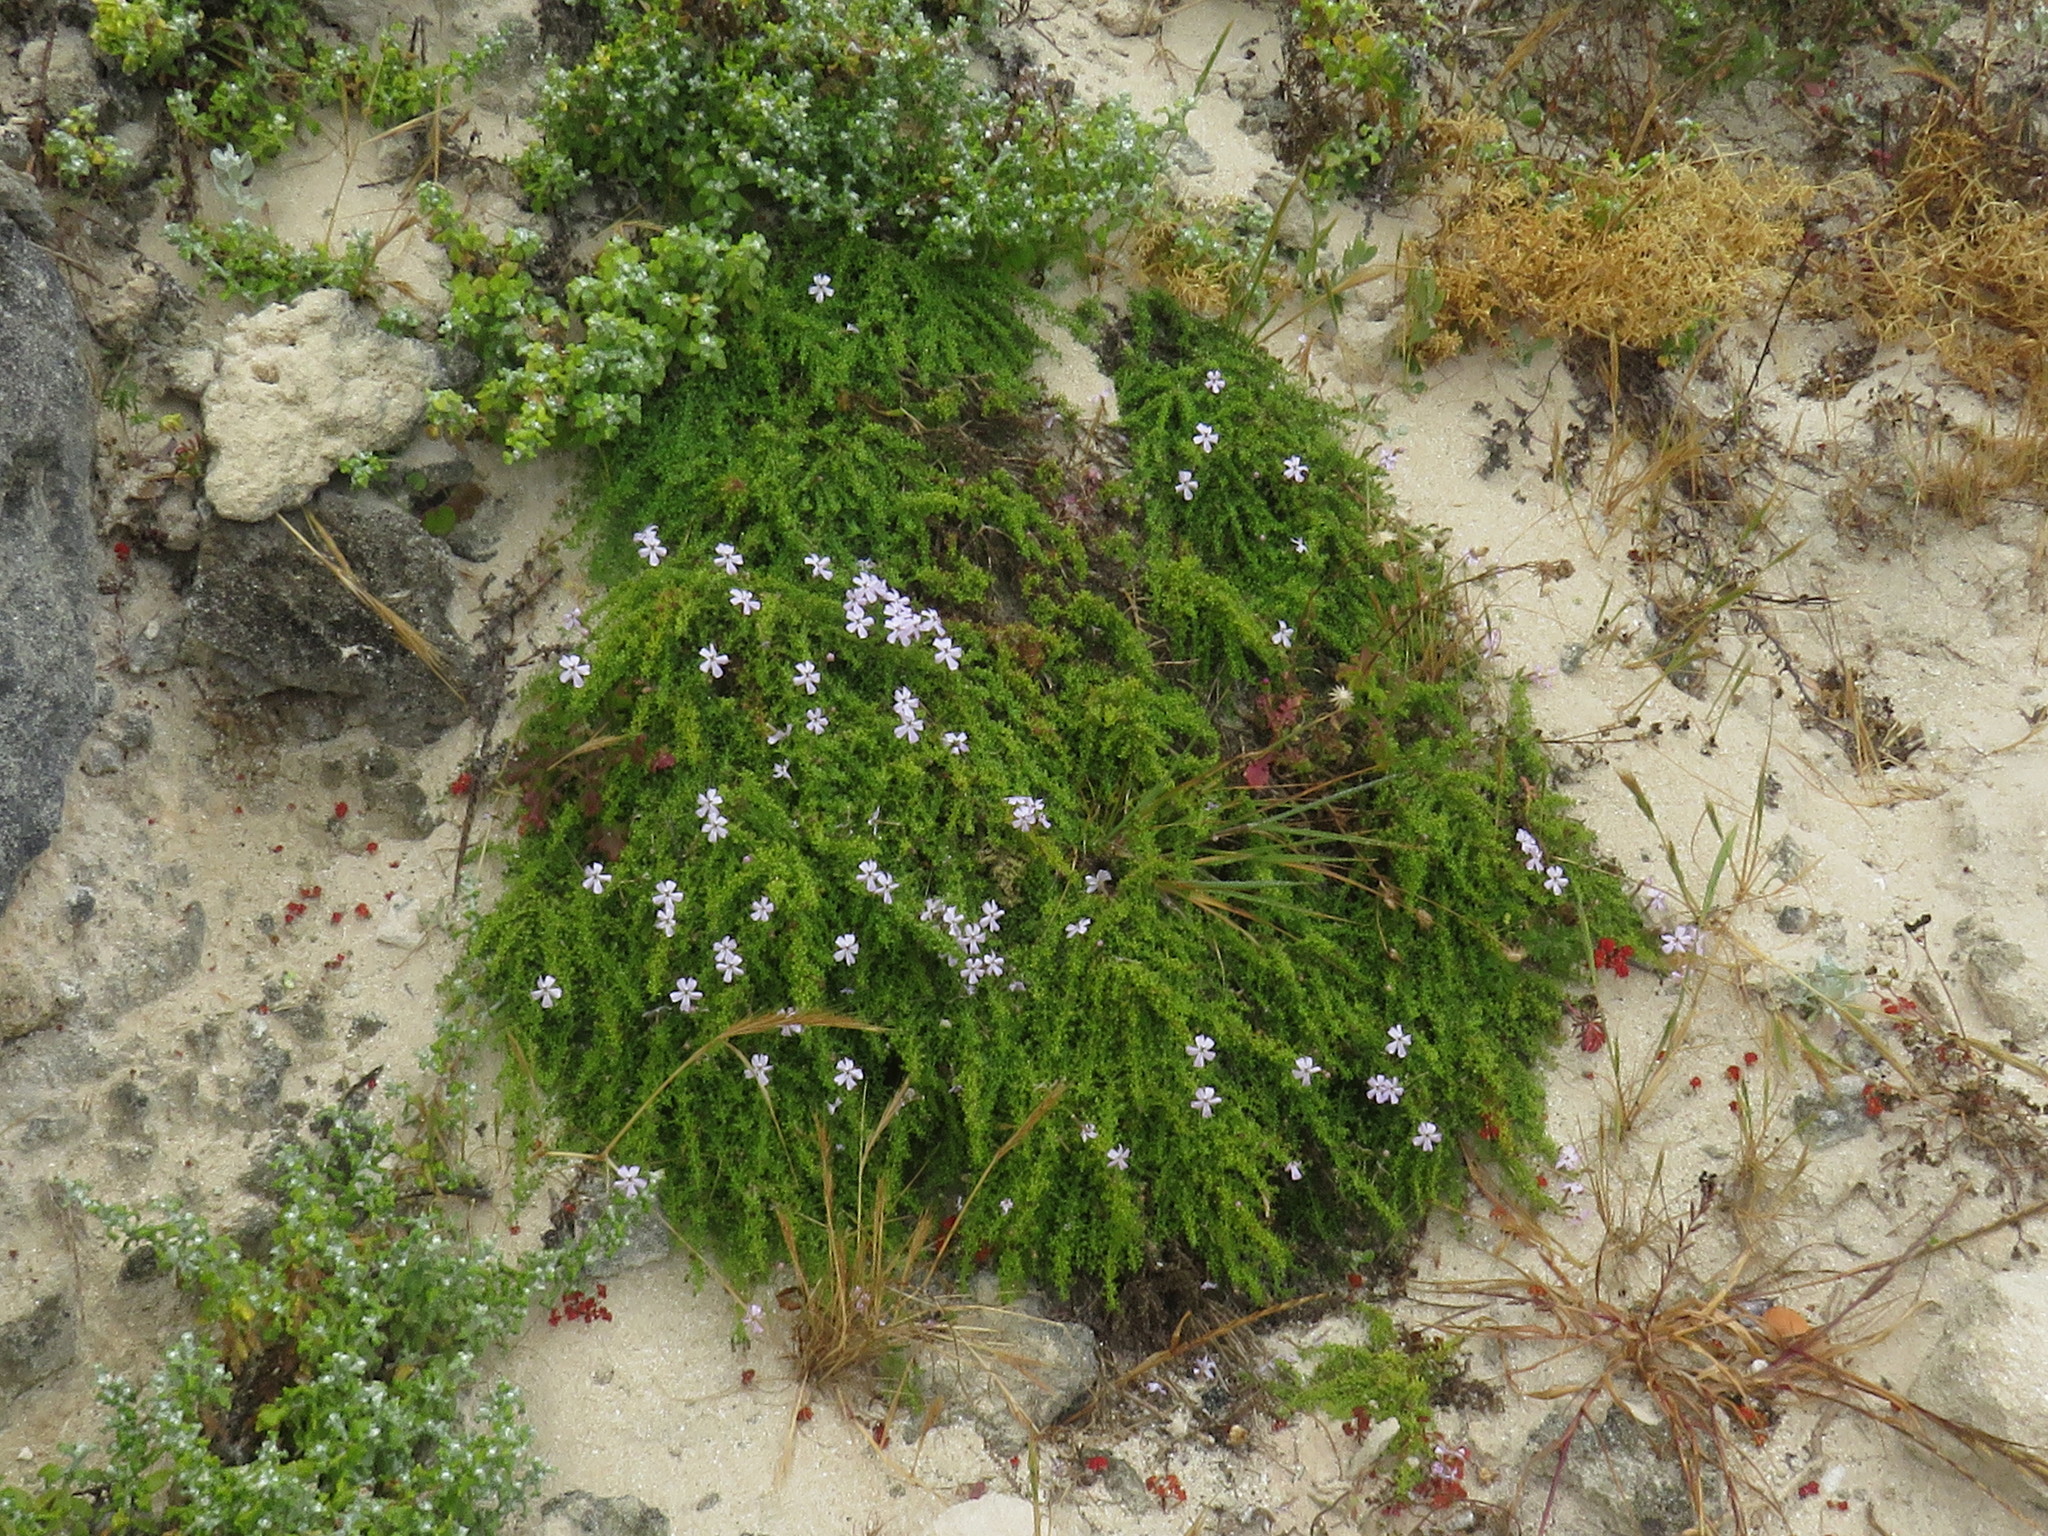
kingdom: Plantae
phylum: Tracheophyta
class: Magnoliopsida
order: Lamiales
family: Scrophulariaceae
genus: Jamesbrittenia
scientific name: Jamesbrittenia stellata
